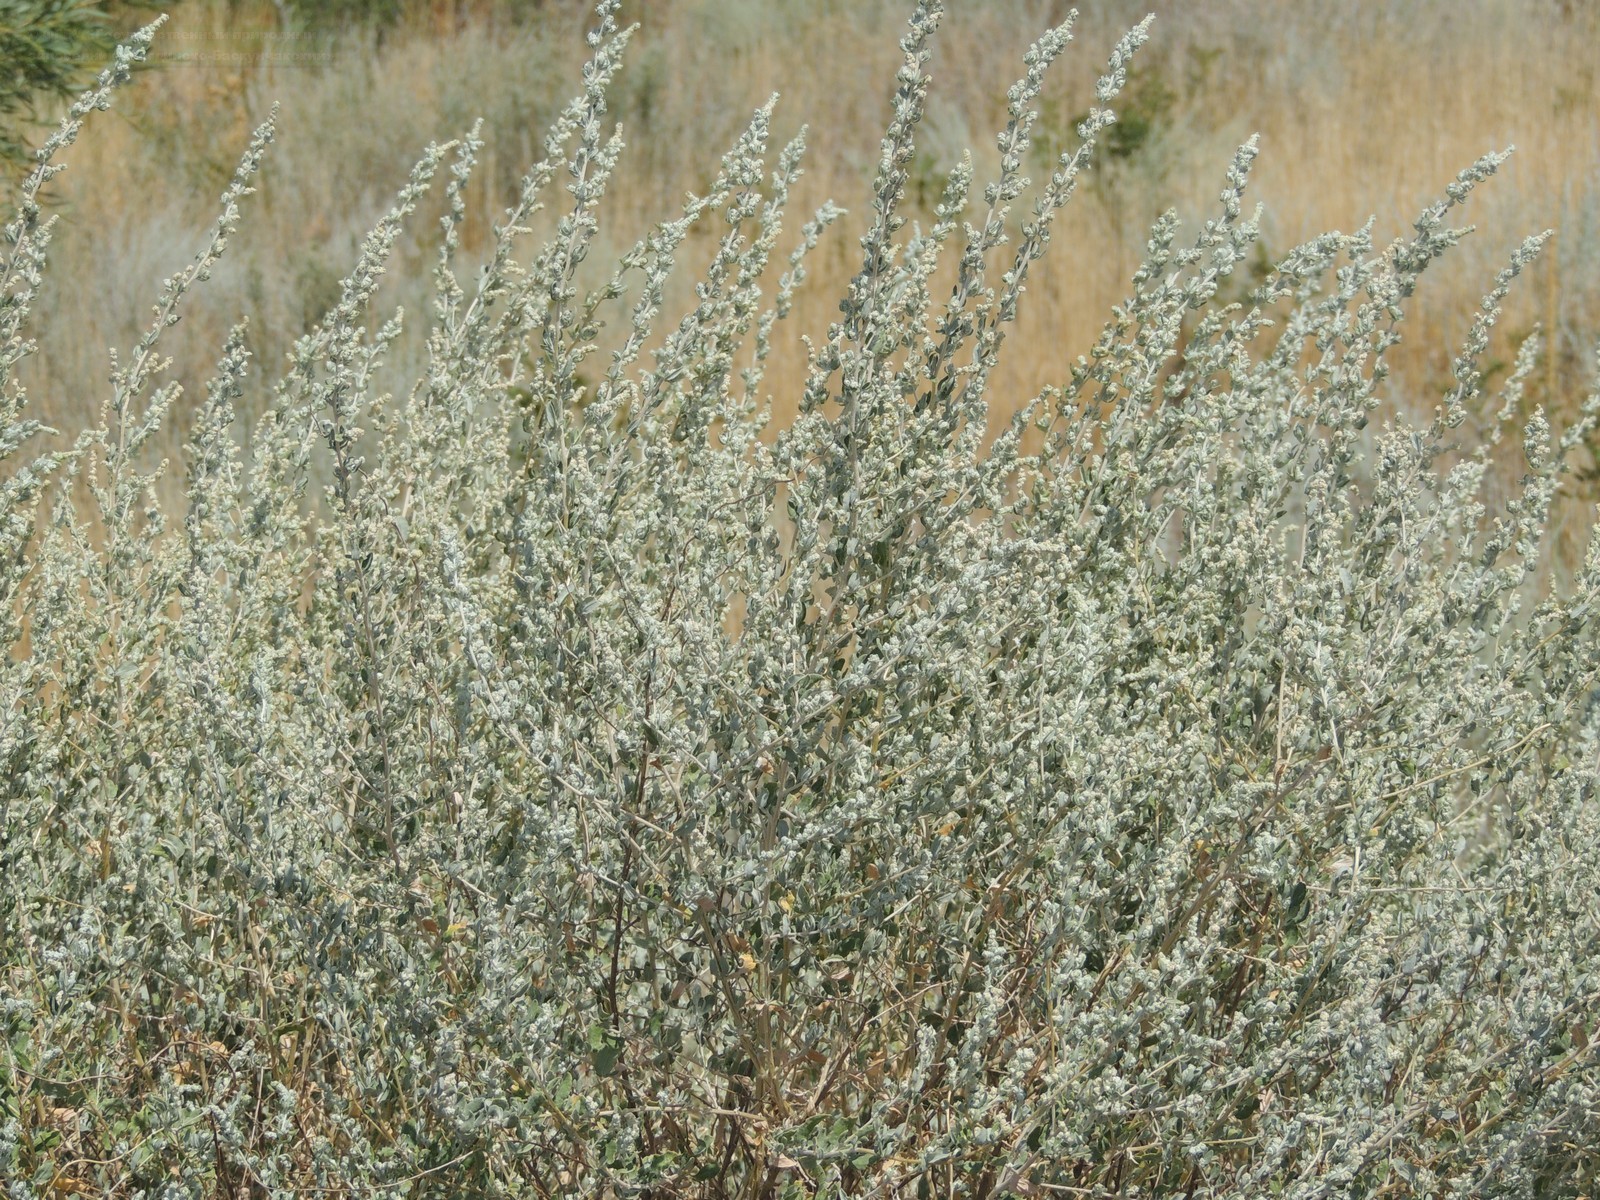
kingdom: Plantae
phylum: Tracheophyta
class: Magnoliopsida
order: Caryophyllales
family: Amaranthaceae
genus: Krascheninnikovia
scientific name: Krascheninnikovia ceratoides
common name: Pamirian winterfat
